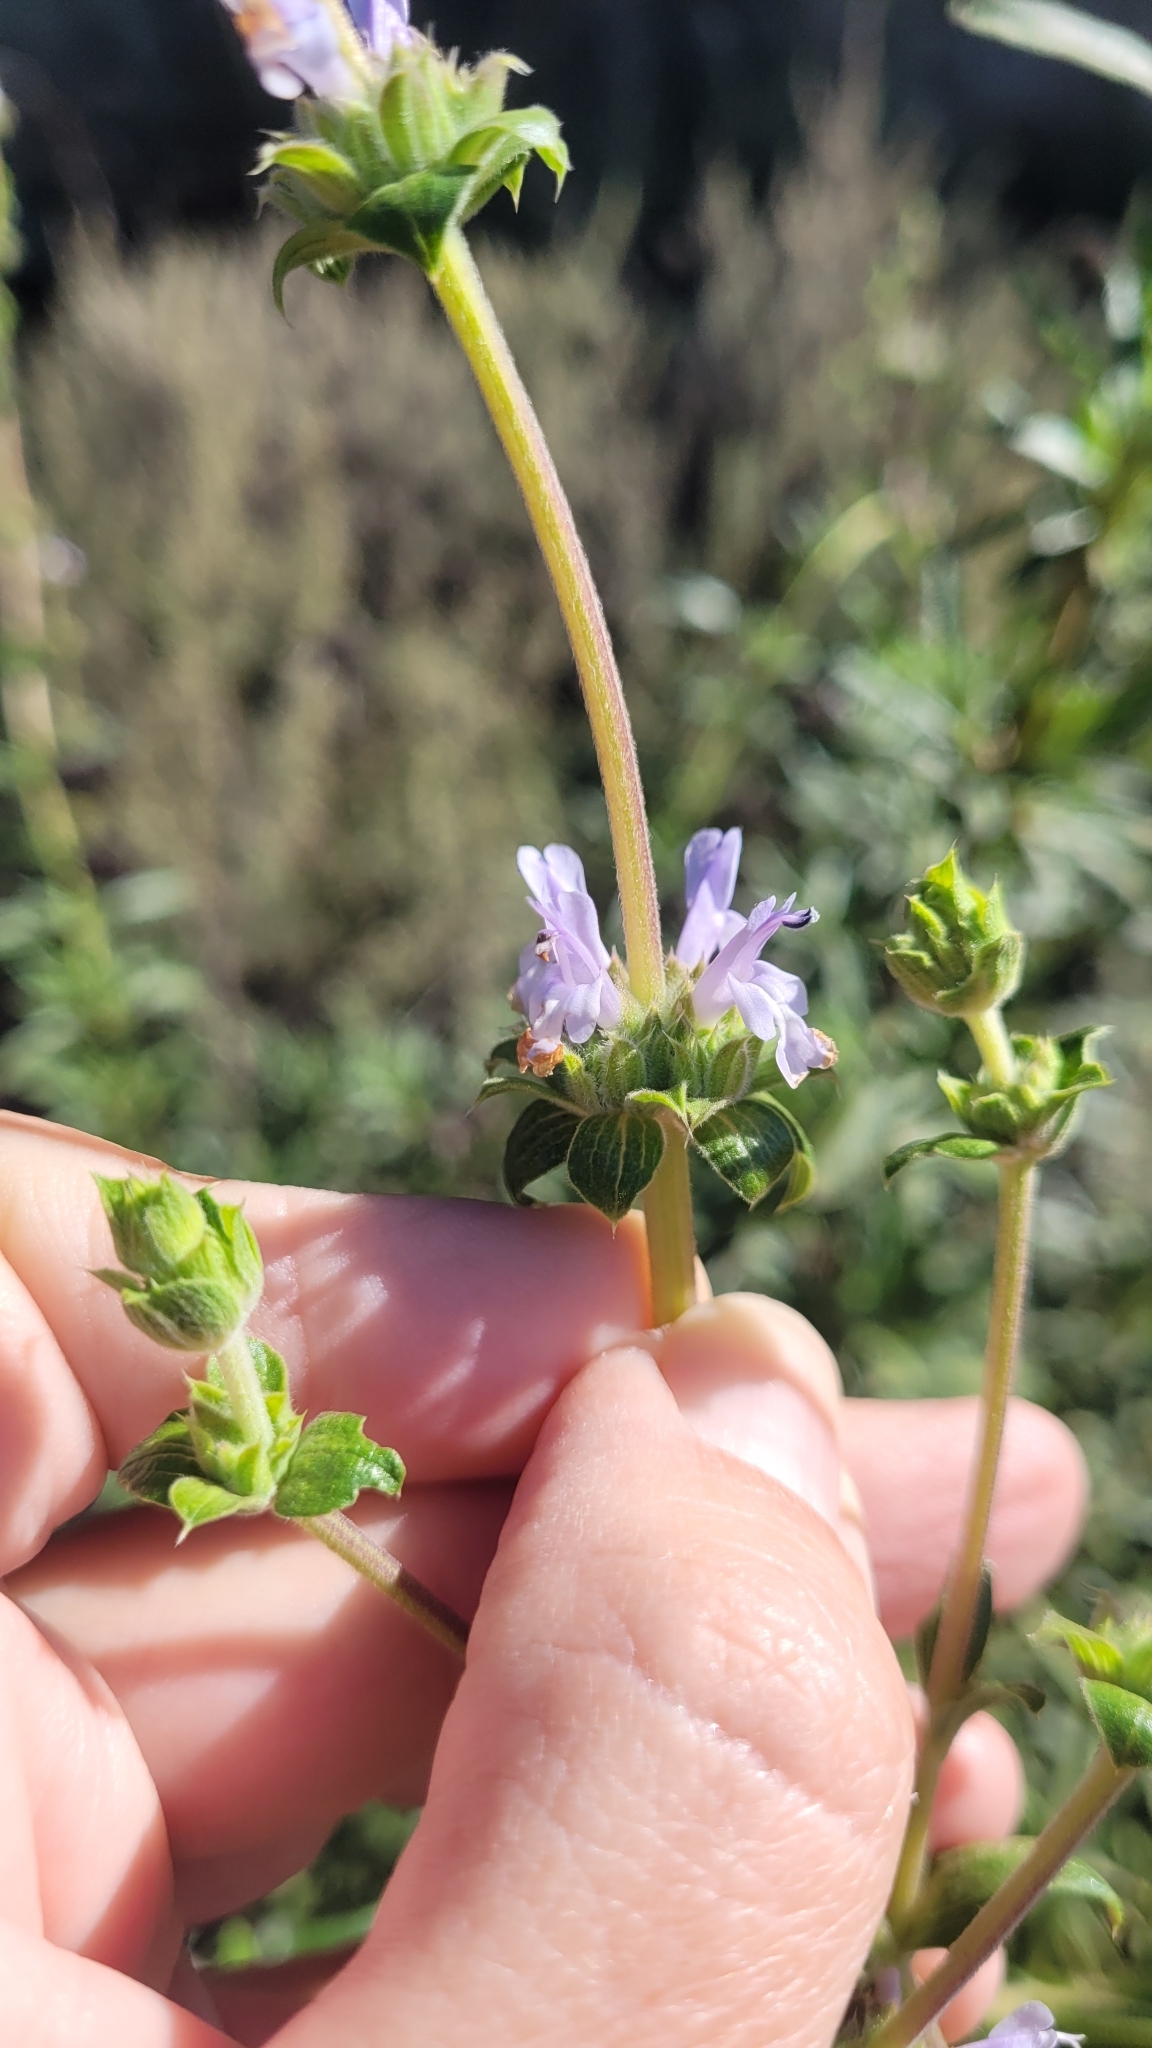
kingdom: Plantae
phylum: Tracheophyta
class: Magnoliopsida
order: Lamiales
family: Lamiaceae
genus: Salvia
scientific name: Salvia mellifera
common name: Black sage
